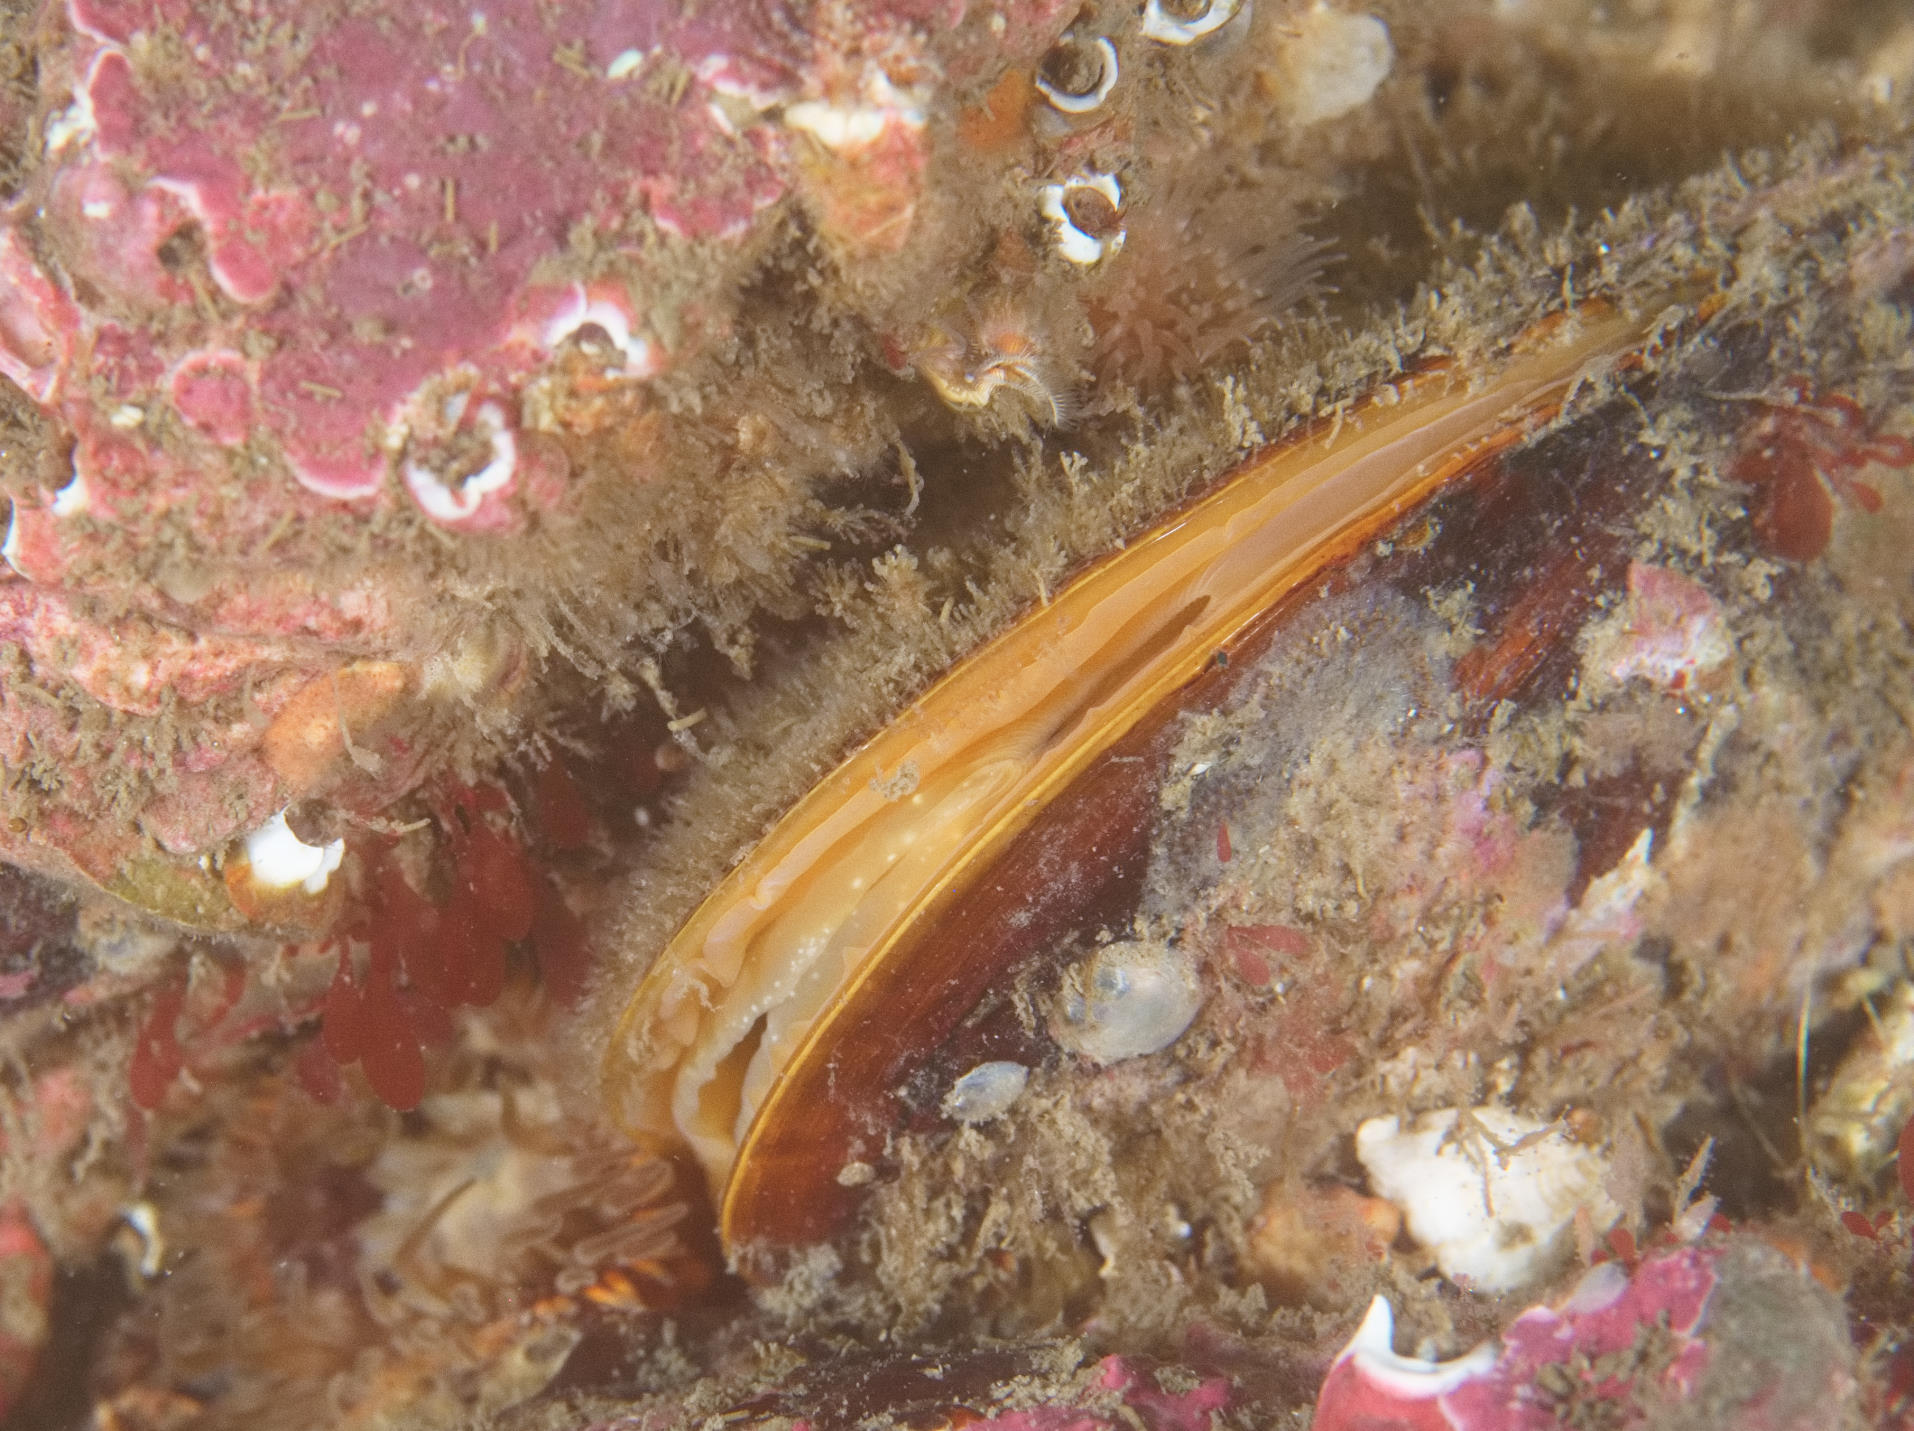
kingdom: Animalia
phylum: Mollusca
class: Bivalvia
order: Mytilida
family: Mytilidae
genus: Modiolus
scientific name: Modiolus modiolus
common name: Horse-mussel
